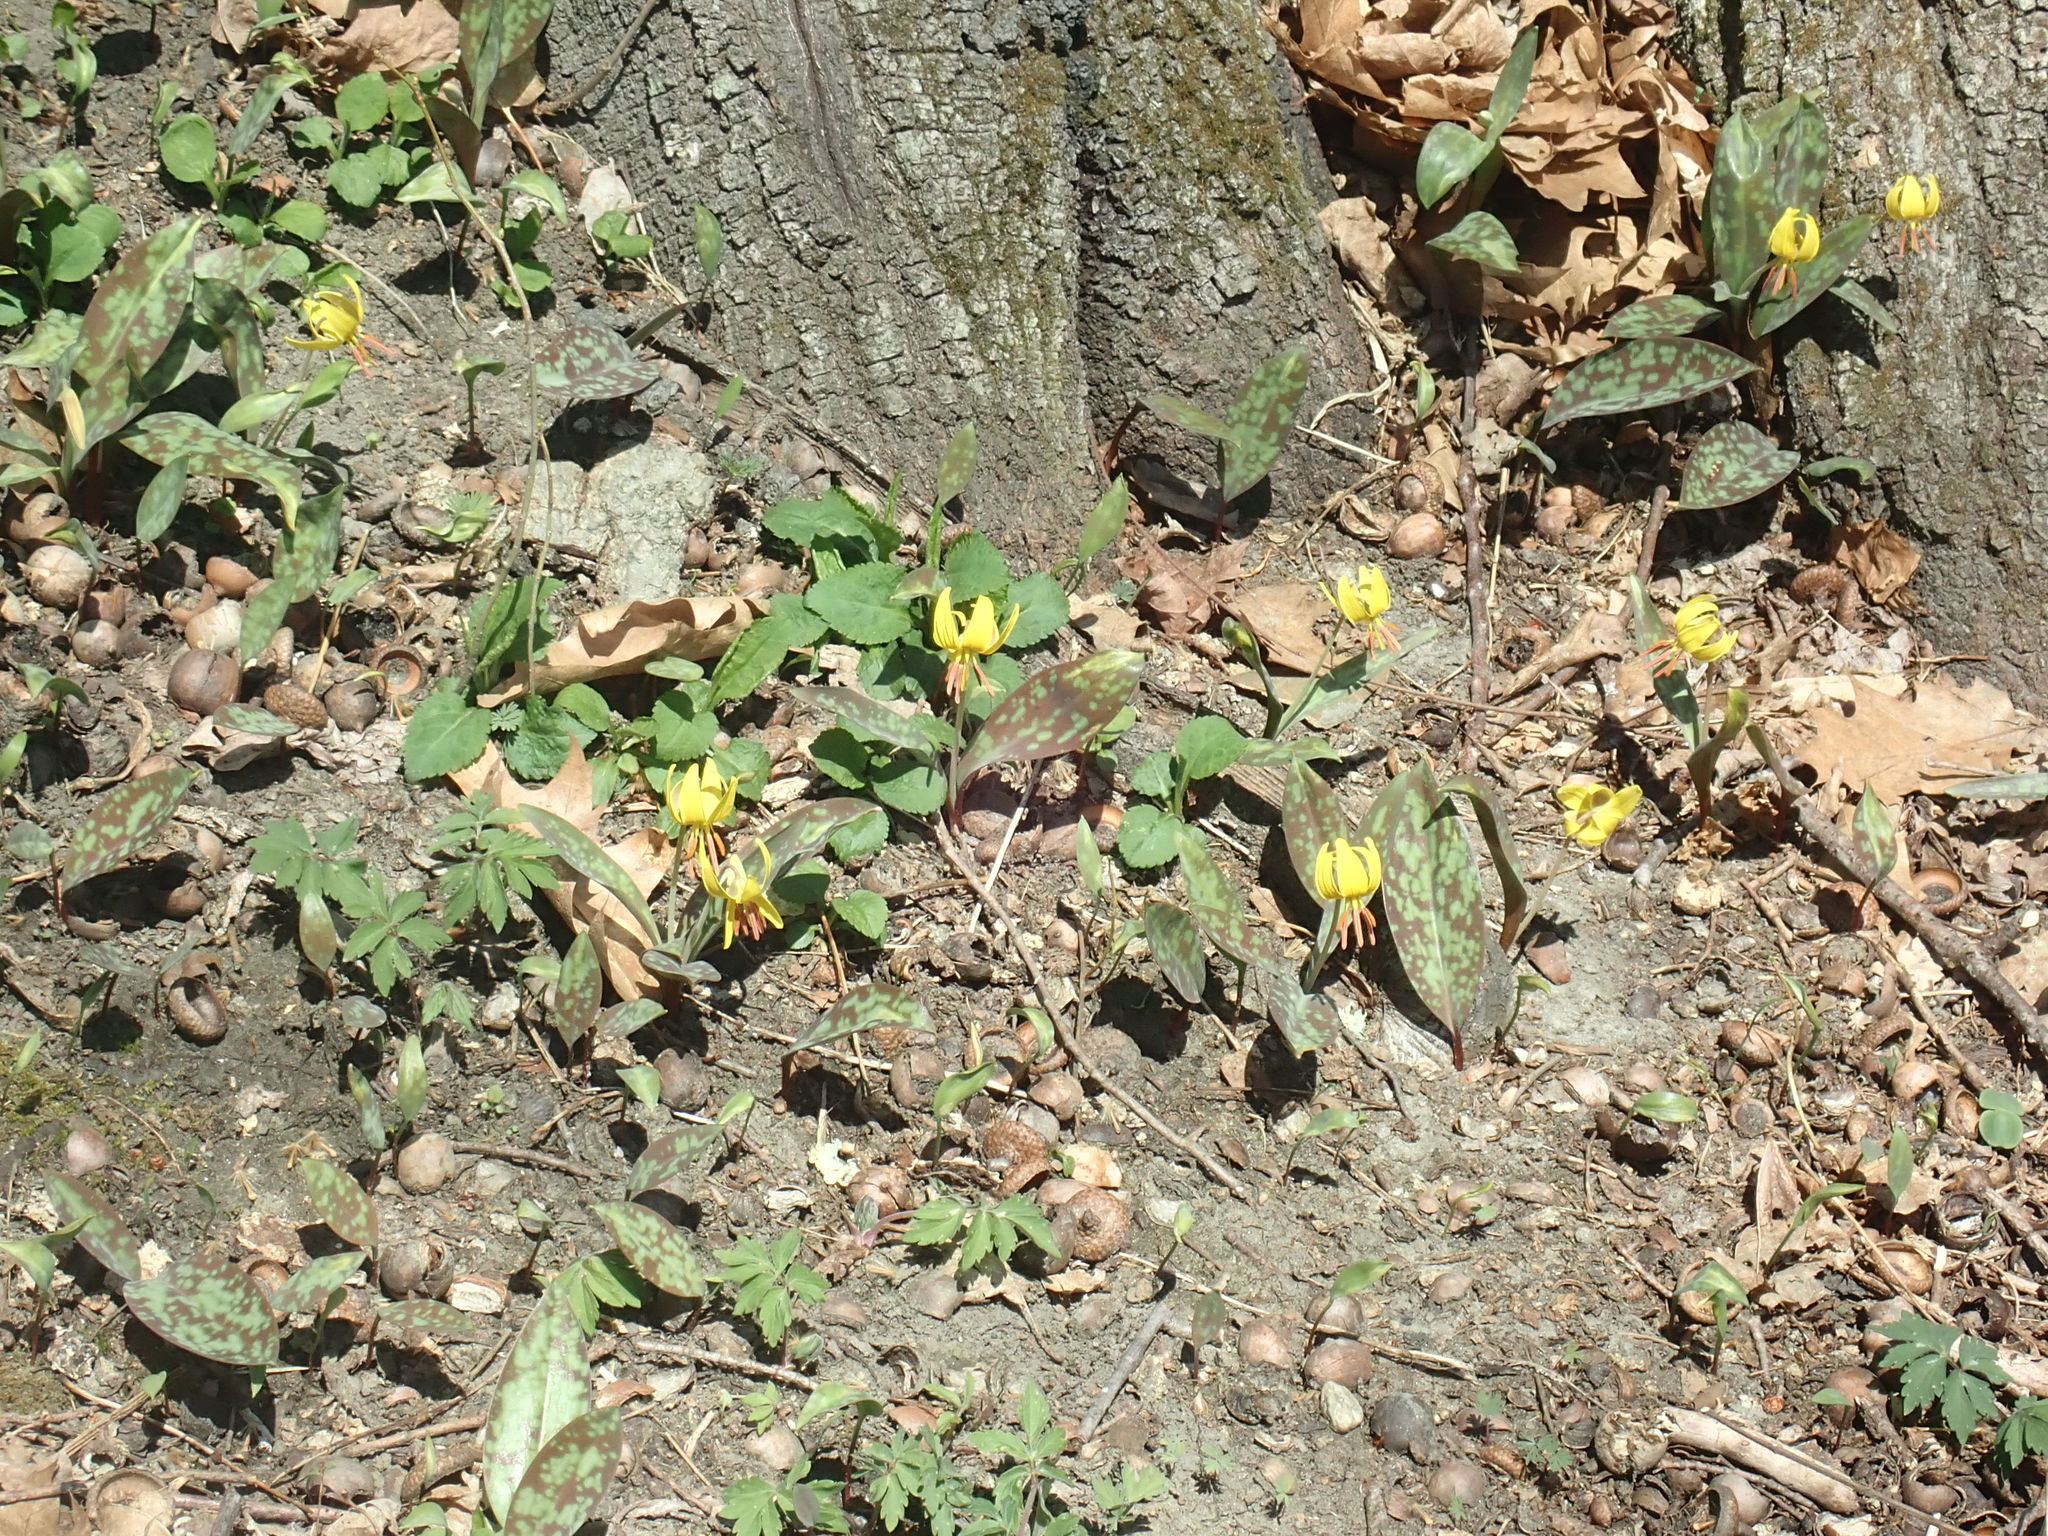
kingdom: Plantae
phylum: Tracheophyta
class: Liliopsida
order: Liliales
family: Liliaceae
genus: Erythronium
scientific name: Erythronium americanum
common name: Yellow adder's-tongue
